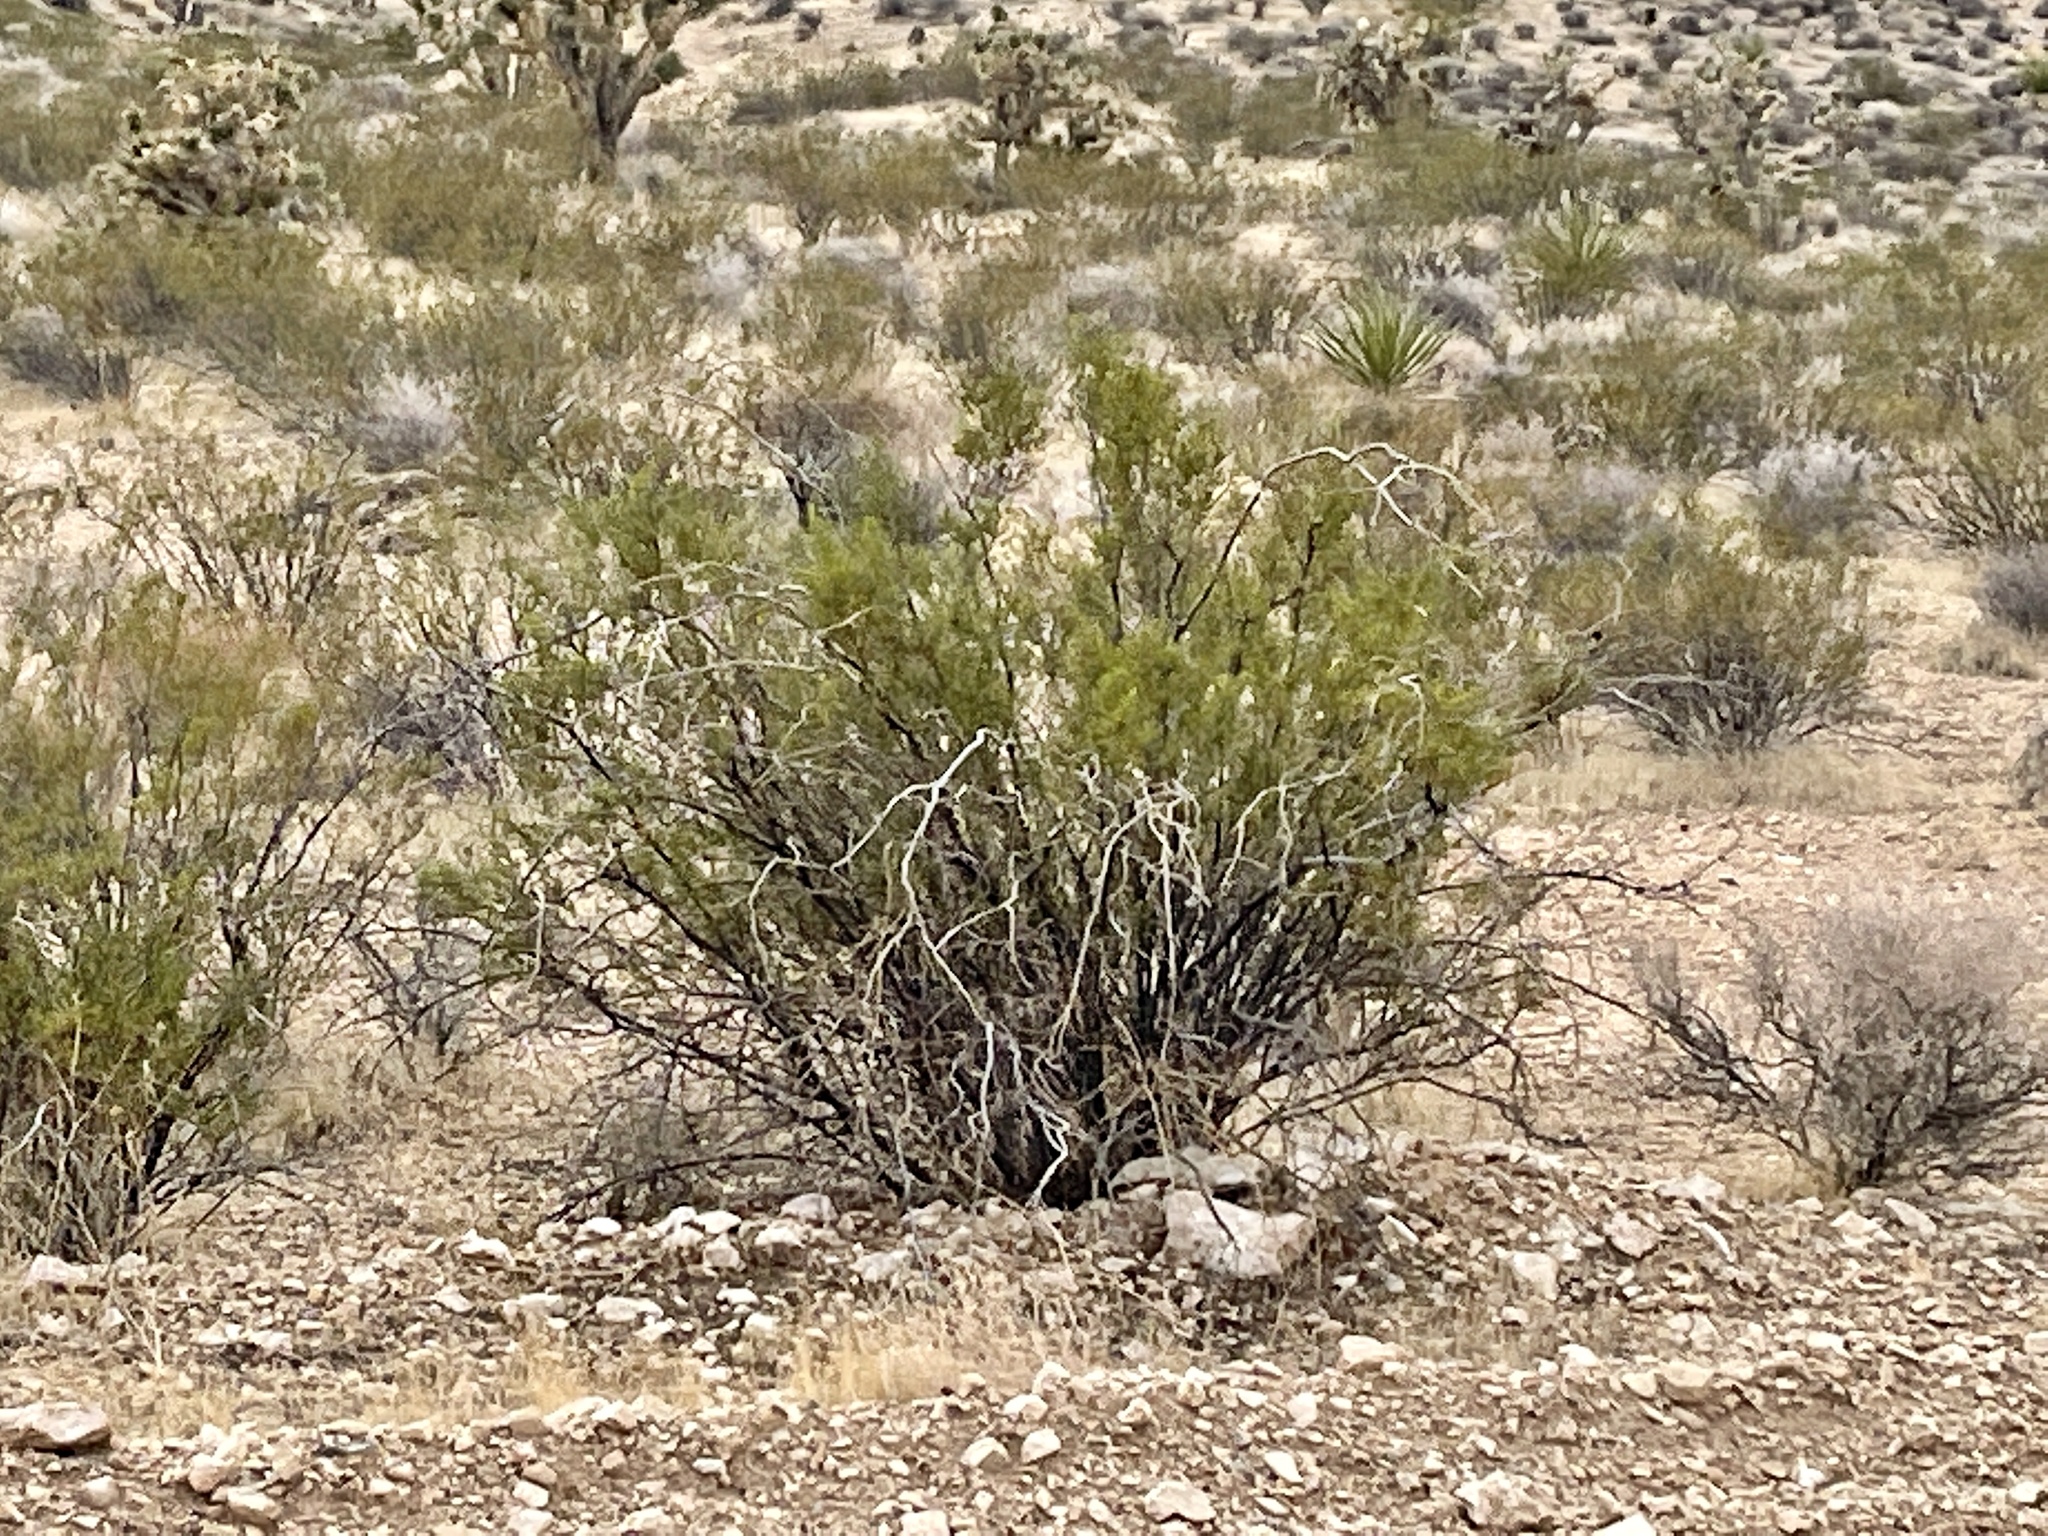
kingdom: Plantae
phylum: Tracheophyta
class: Magnoliopsida
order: Zygophyllales
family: Zygophyllaceae
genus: Larrea
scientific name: Larrea tridentata
